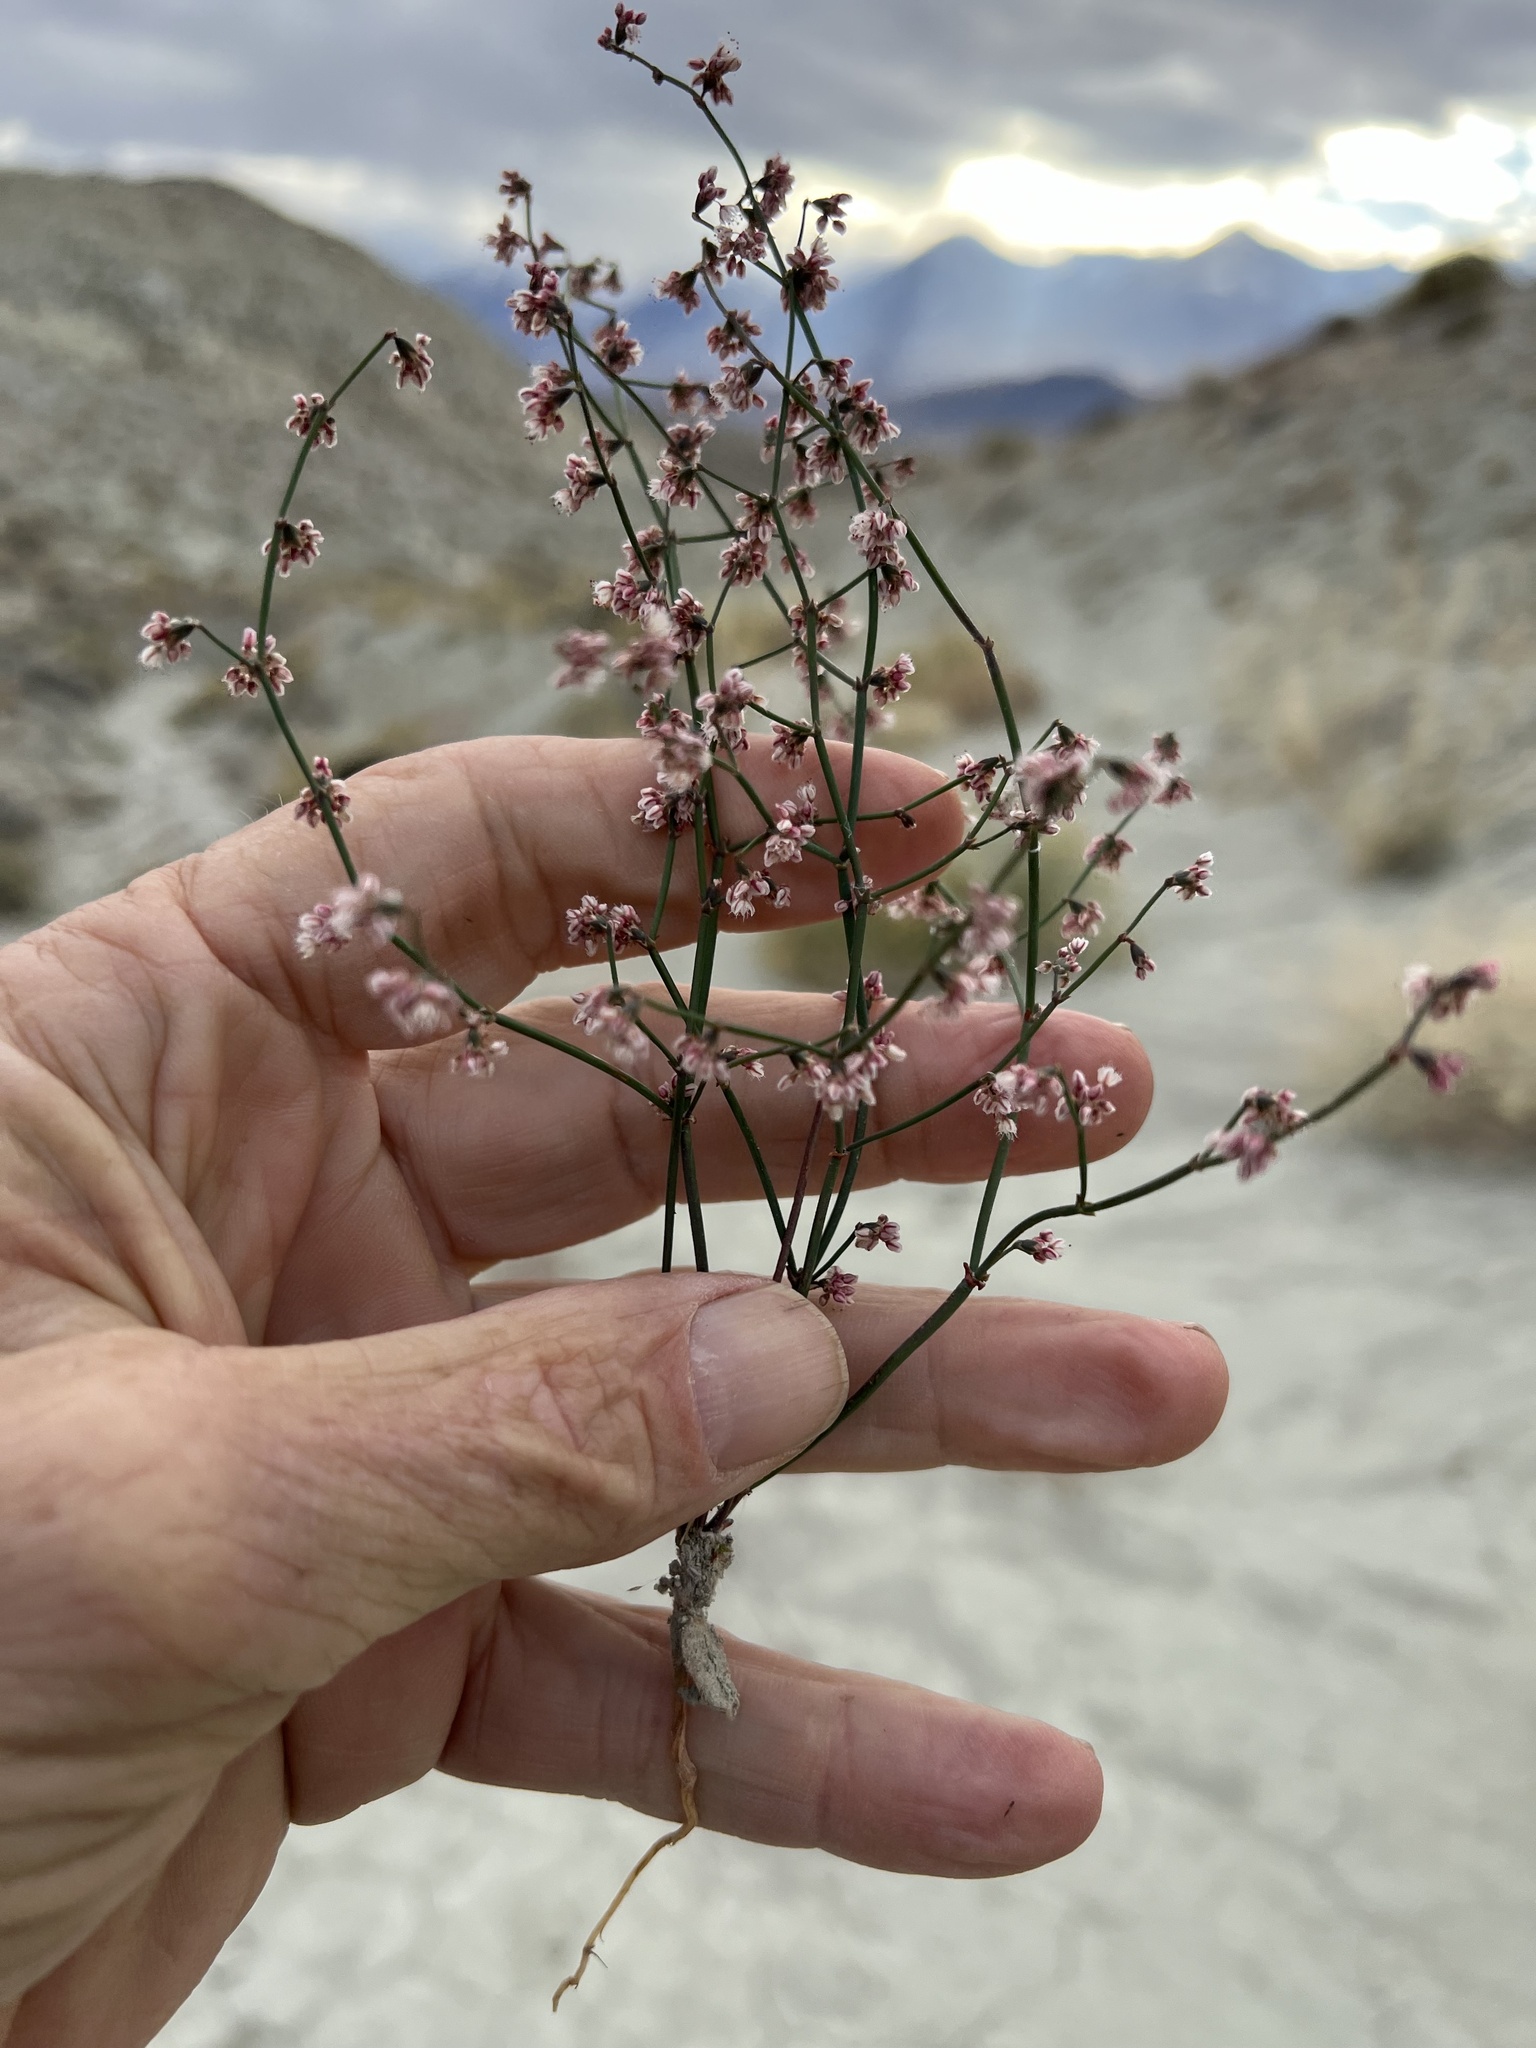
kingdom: Plantae
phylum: Tracheophyta
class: Magnoliopsida
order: Caryophyllales
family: Polygonaceae
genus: Eriogonum
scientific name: Eriogonum deflexum
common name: Skeleton-weed
